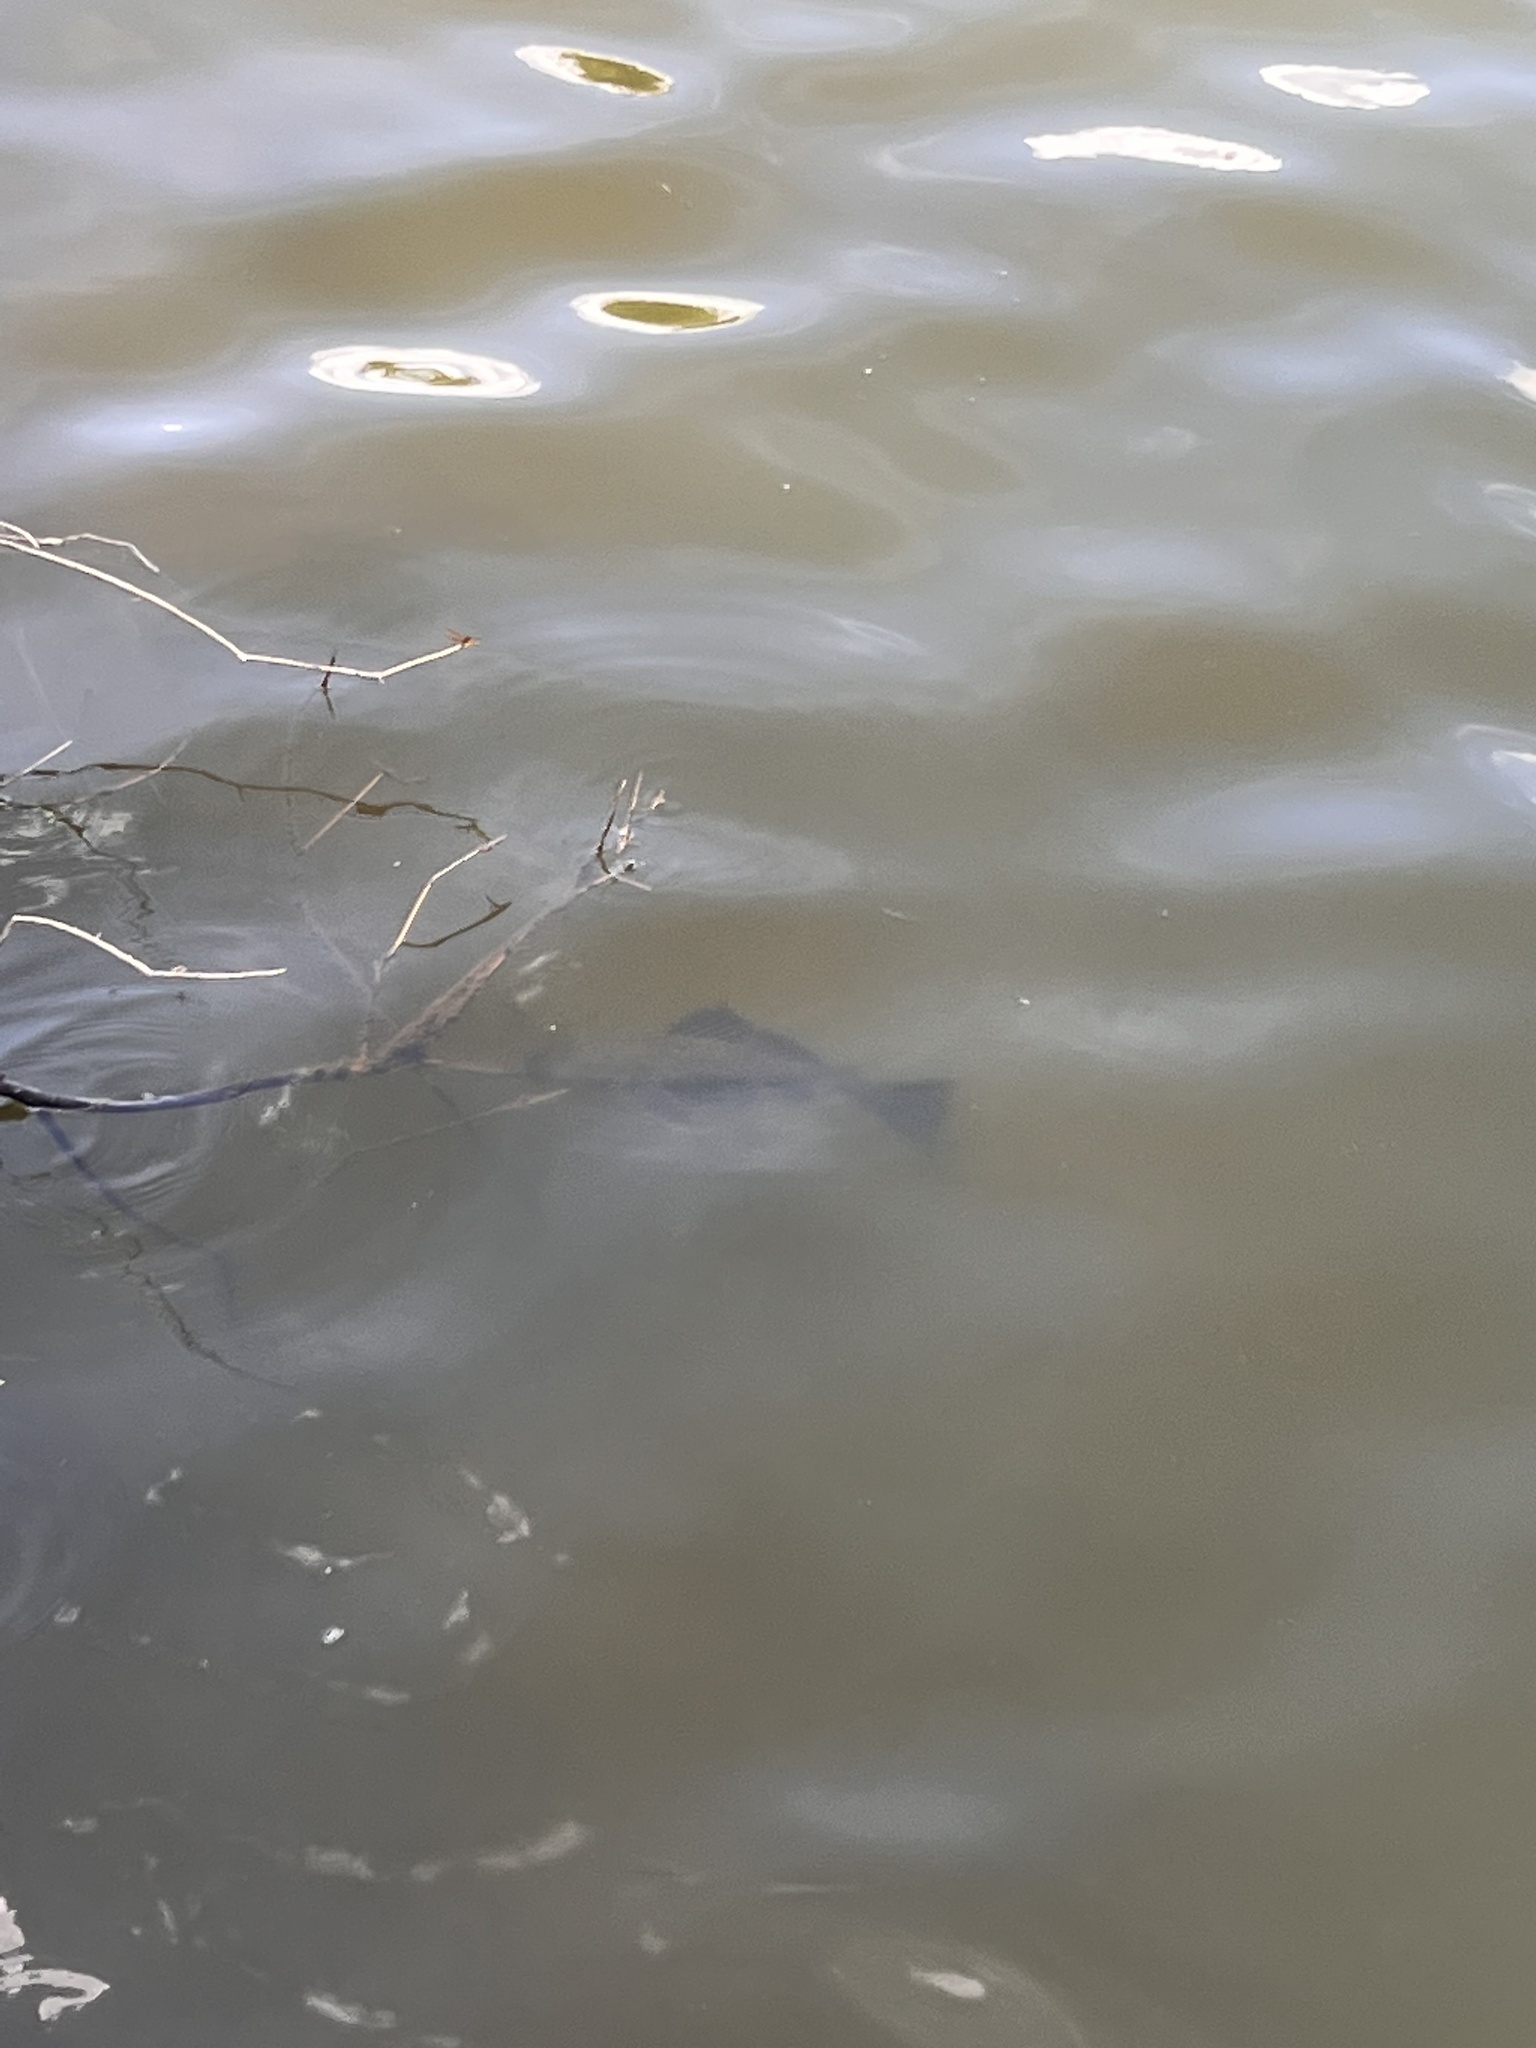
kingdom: Animalia
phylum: Chordata
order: Siluriformes
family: Loricariidae
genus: Pterygoplichthys
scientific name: Pterygoplichthys
